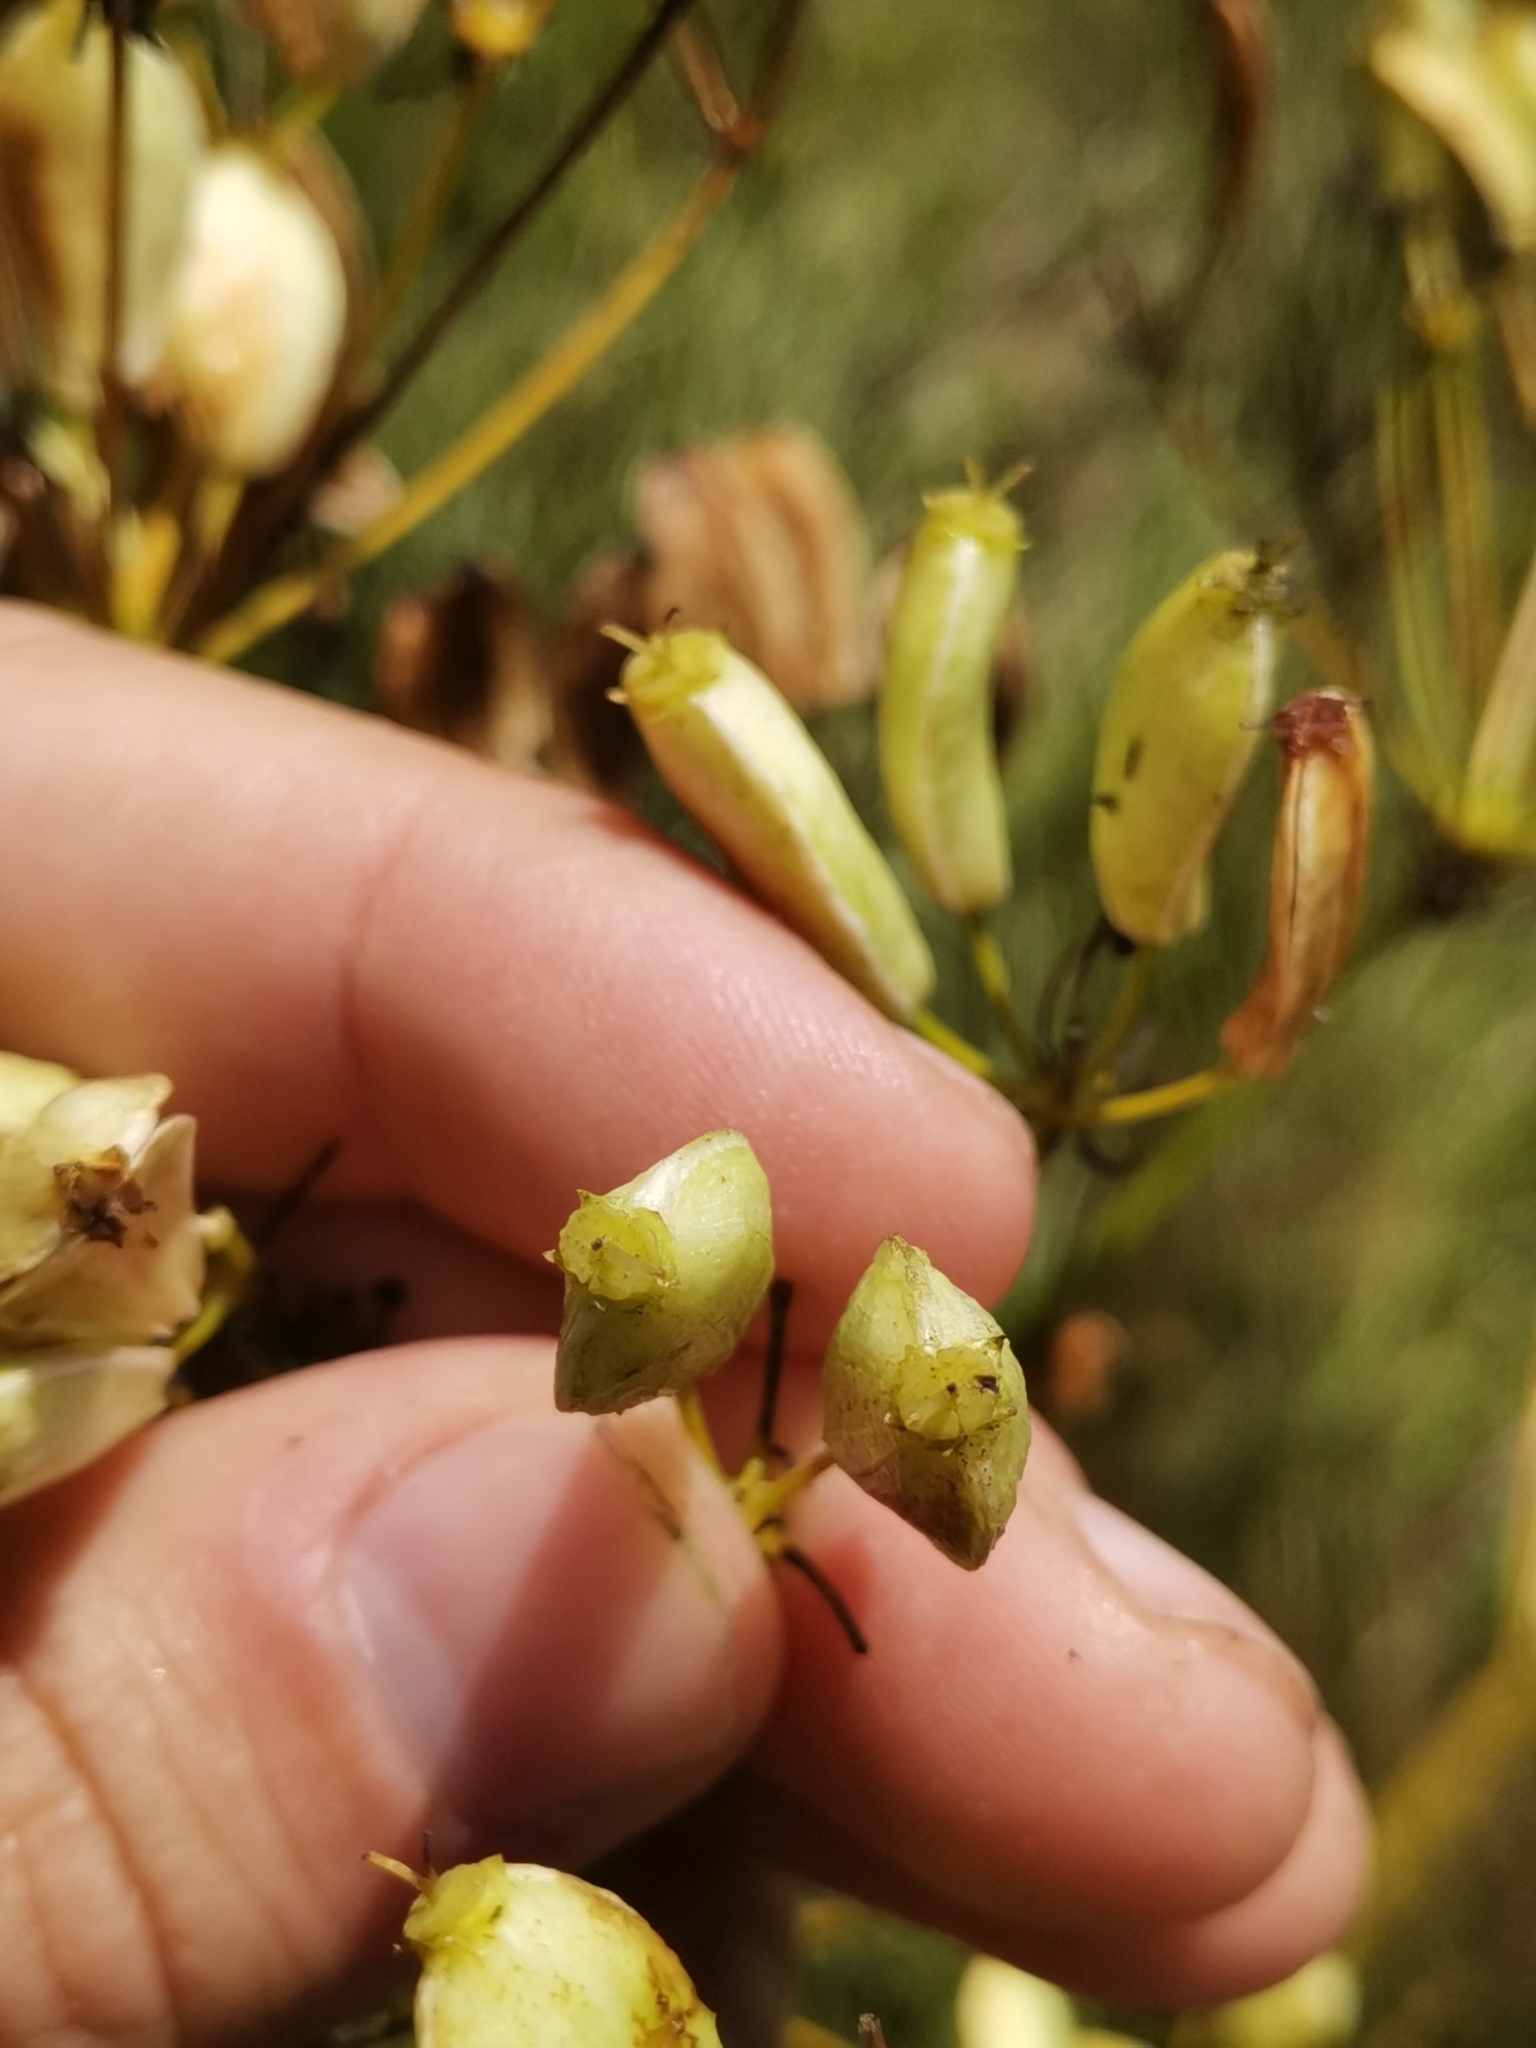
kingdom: Plantae
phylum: Tracheophyta
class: Magnoliopsida
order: Apiales
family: Apiaceae
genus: Ferulago
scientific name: Ferulago galbanifera
